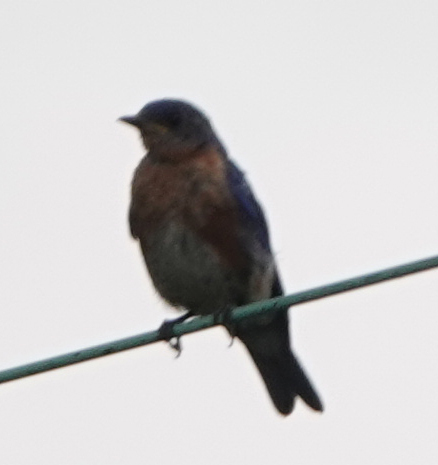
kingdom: Animalia
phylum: Chordata
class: Aves
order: Passeriformes
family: Turdidae
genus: Sialia
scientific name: Sialia sialis
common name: Eastern bluebird
